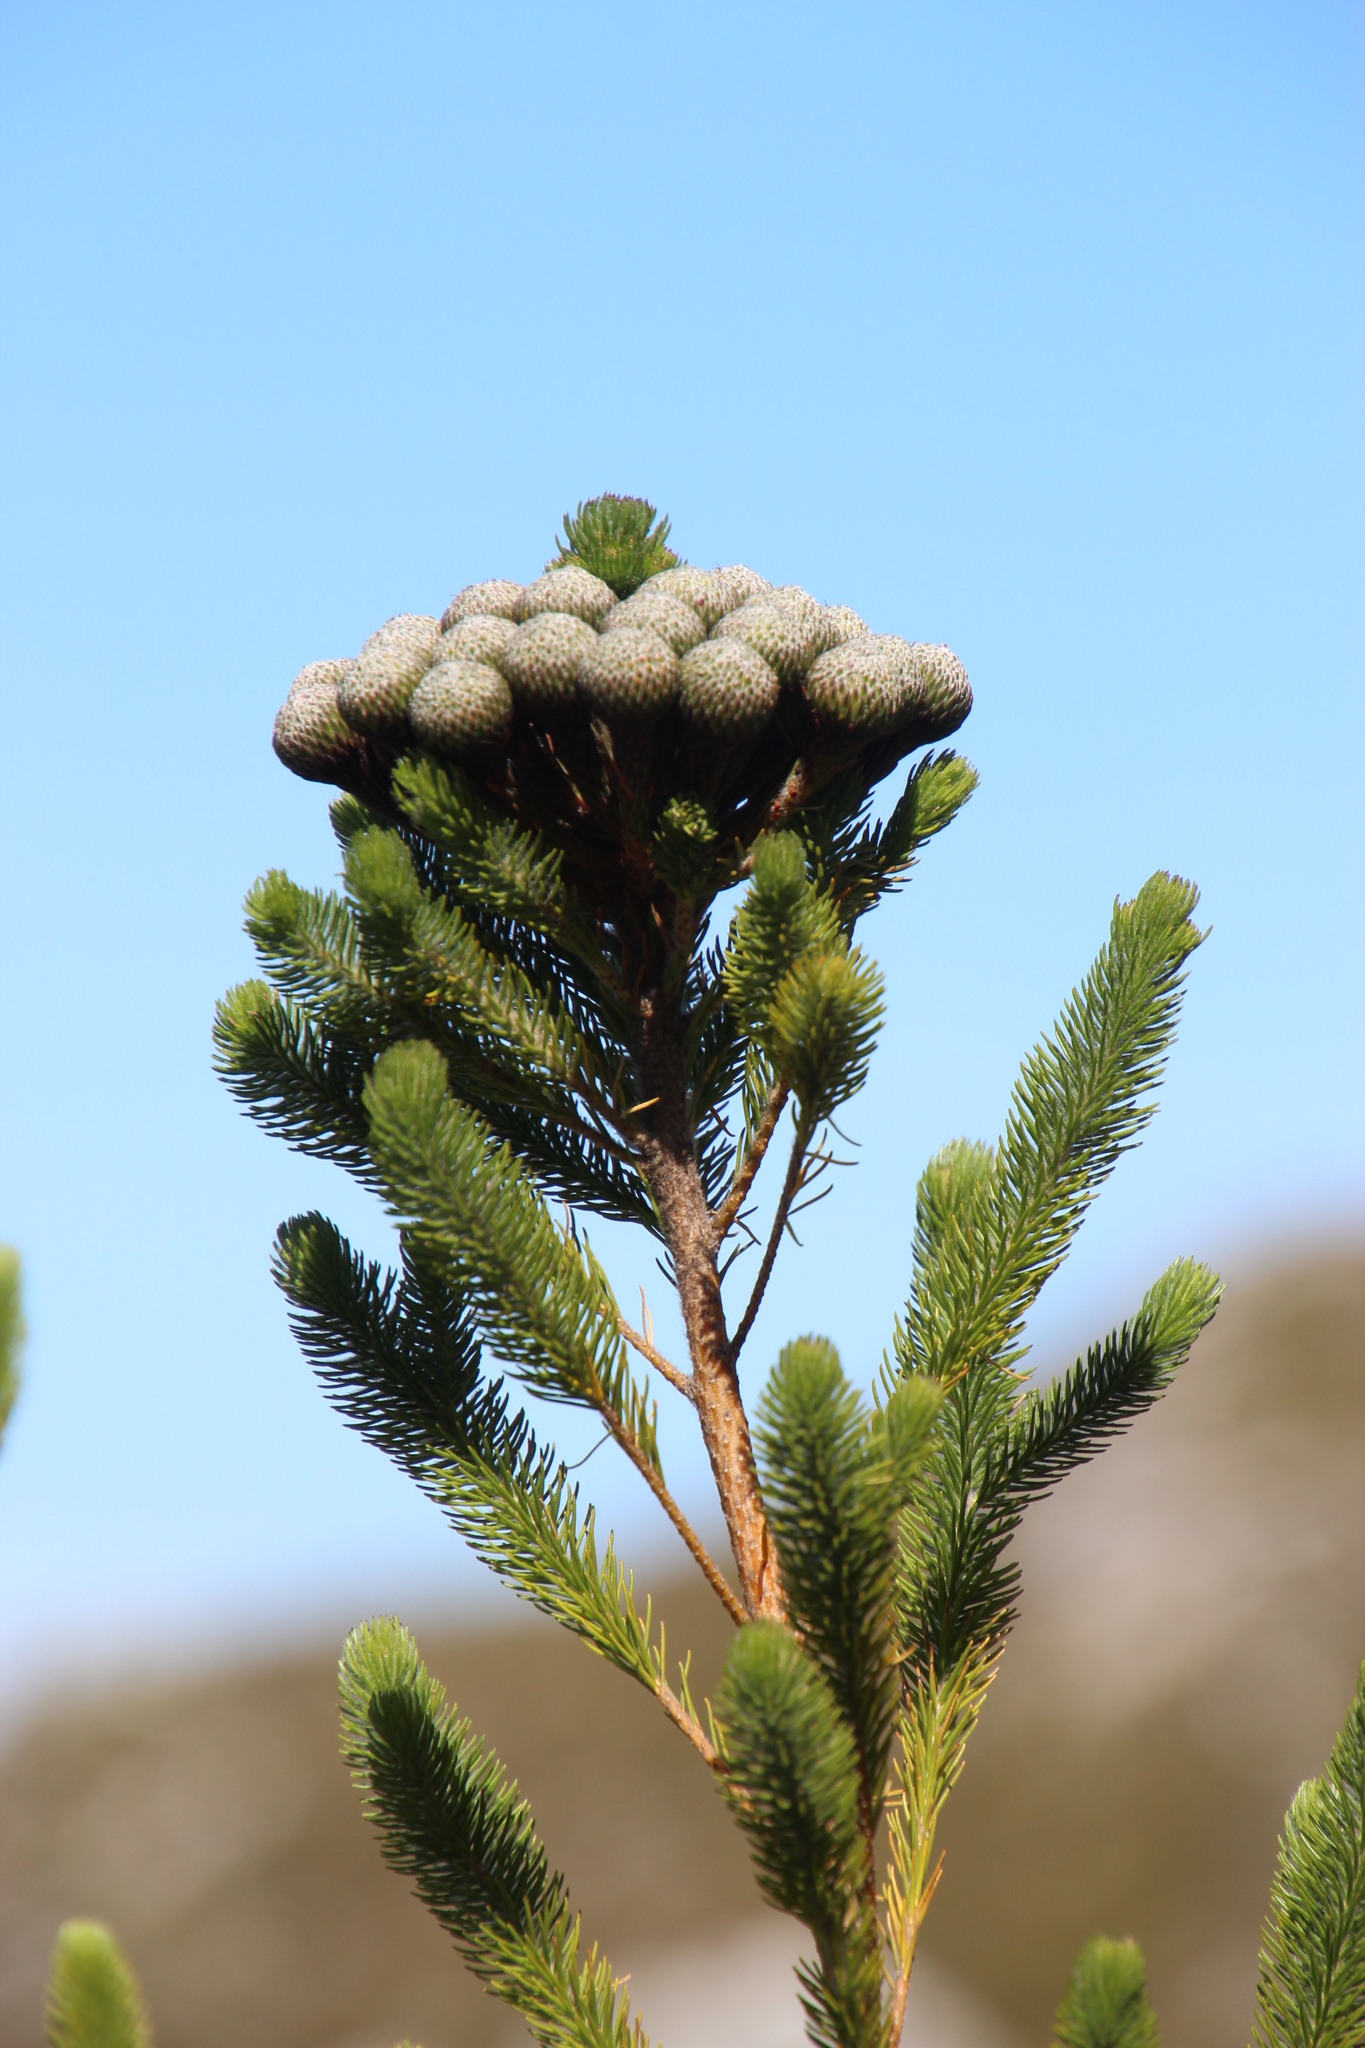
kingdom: Plantae
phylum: Tracheophyta
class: Magnoliopsida
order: Bruniales
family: Bruniaceae
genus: Berzelia
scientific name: Berzelia albiflora
